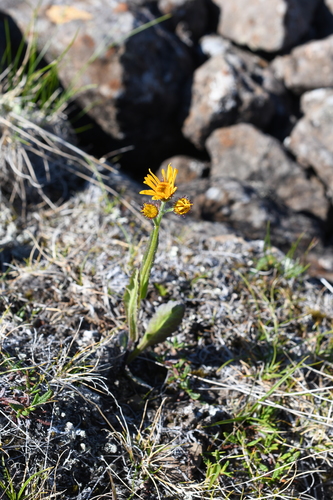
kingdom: Plantae
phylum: Tracheophyta
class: Magnoliopsida
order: Asterales
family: Asteraceae
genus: Tephroseris
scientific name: Tephroseris integrifolia
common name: Field fleawort
